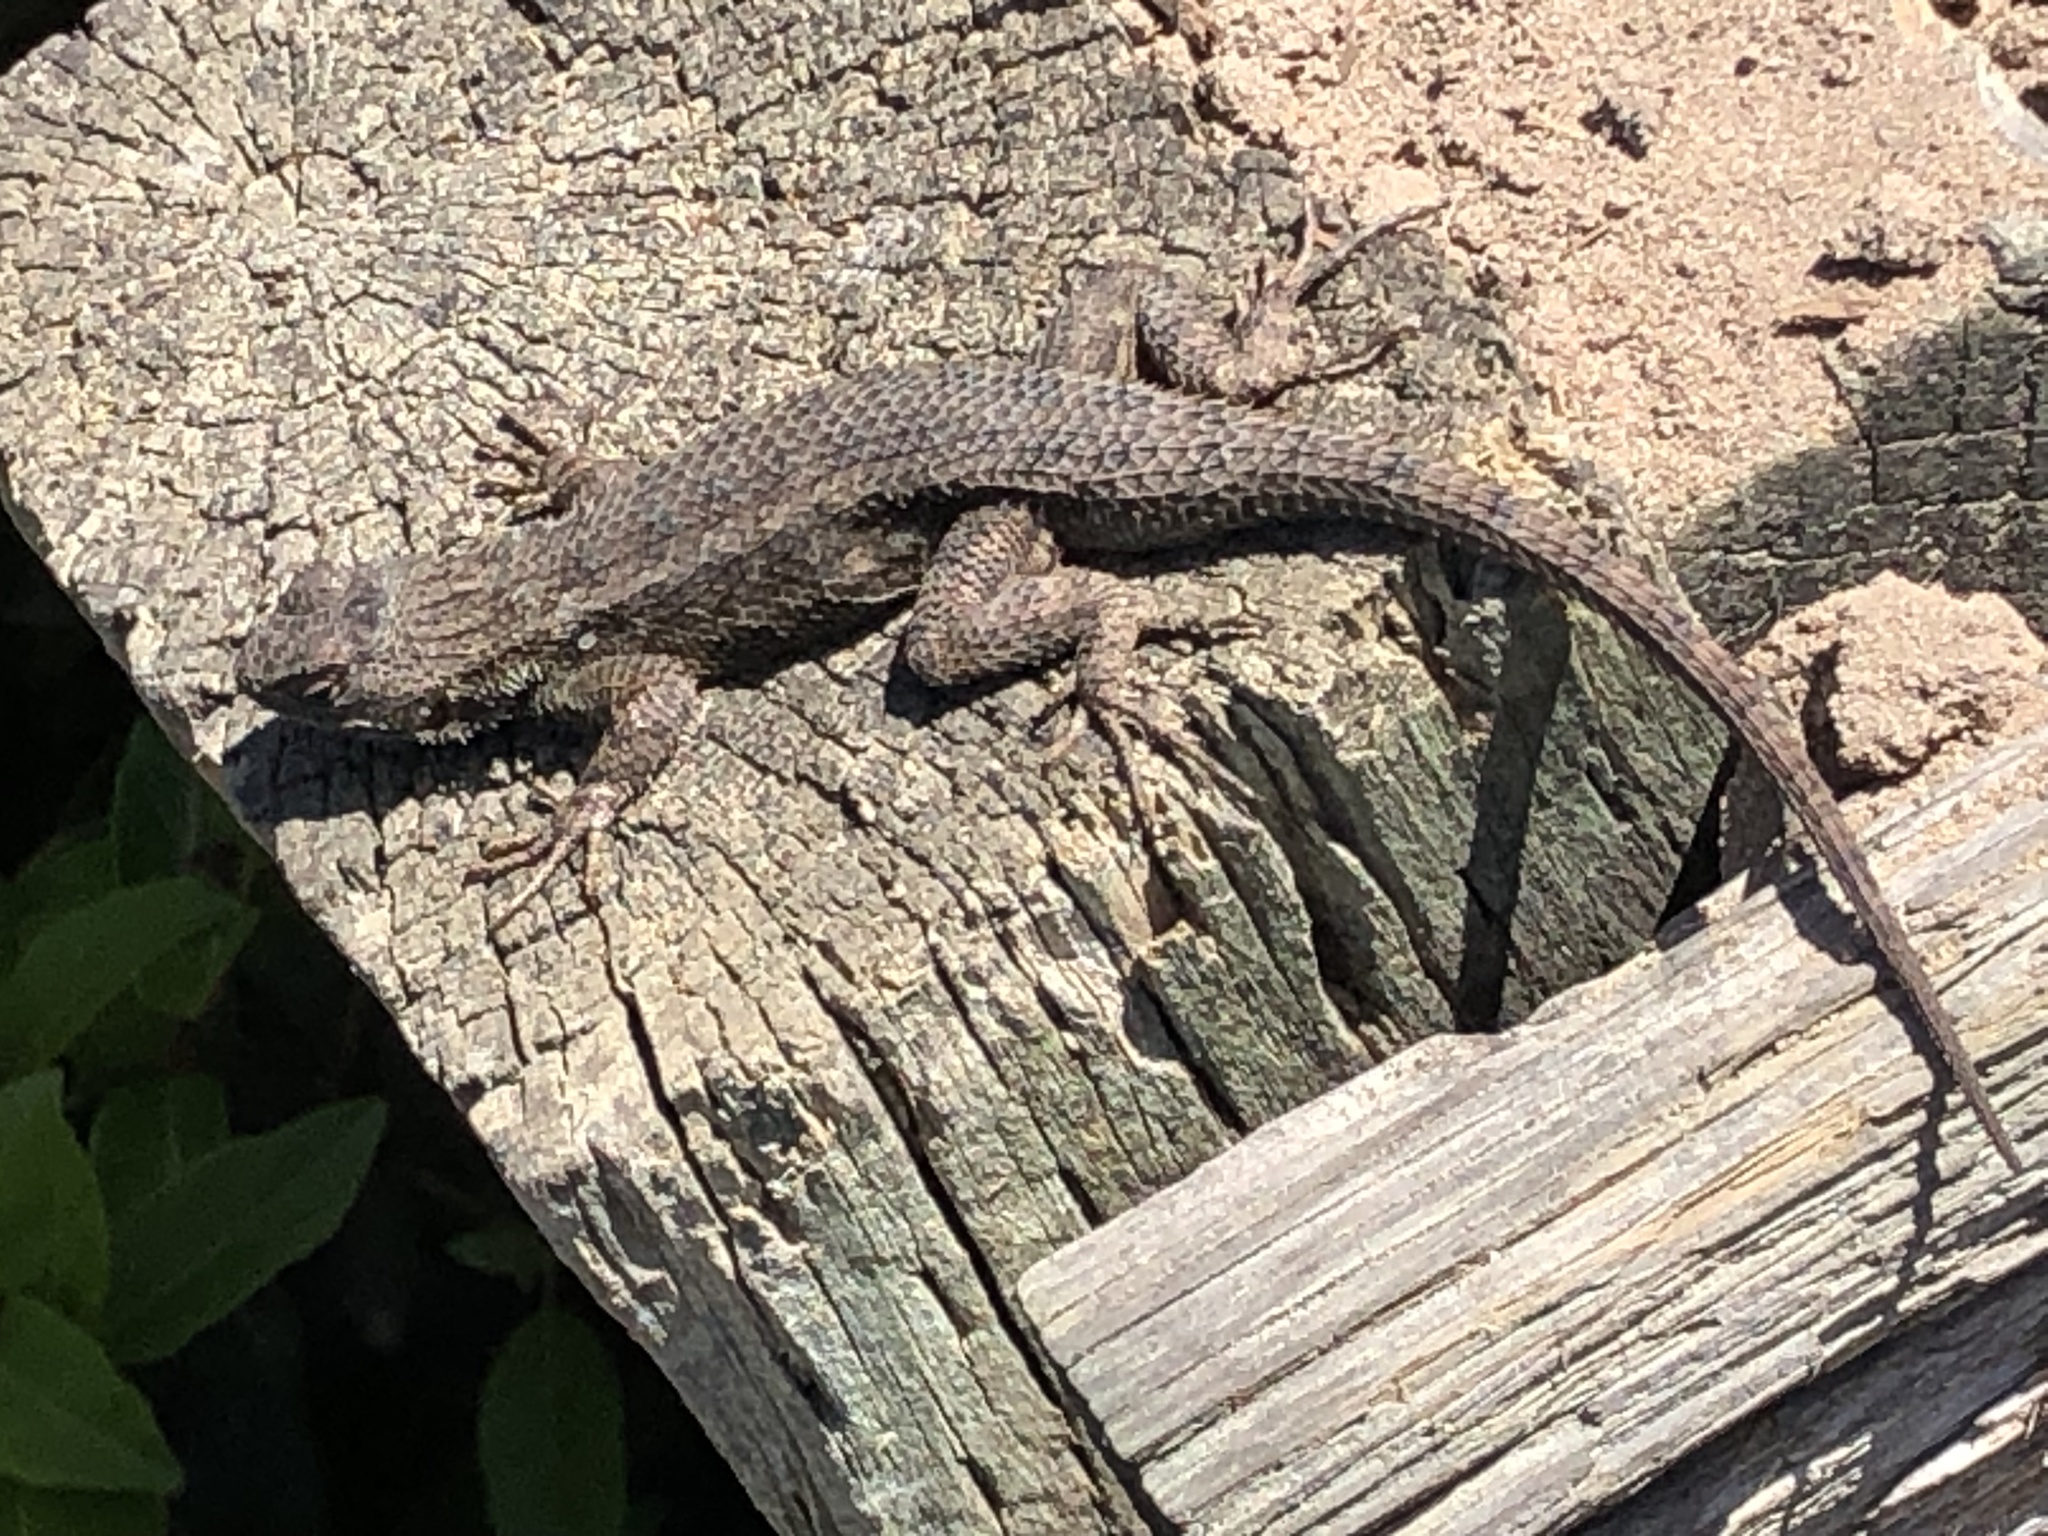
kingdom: Animalia
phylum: Chordata
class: Squamata
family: Phrynosomatidae
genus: Sceloporus
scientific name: Sceloporus occidentalis
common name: Western fence lizard
